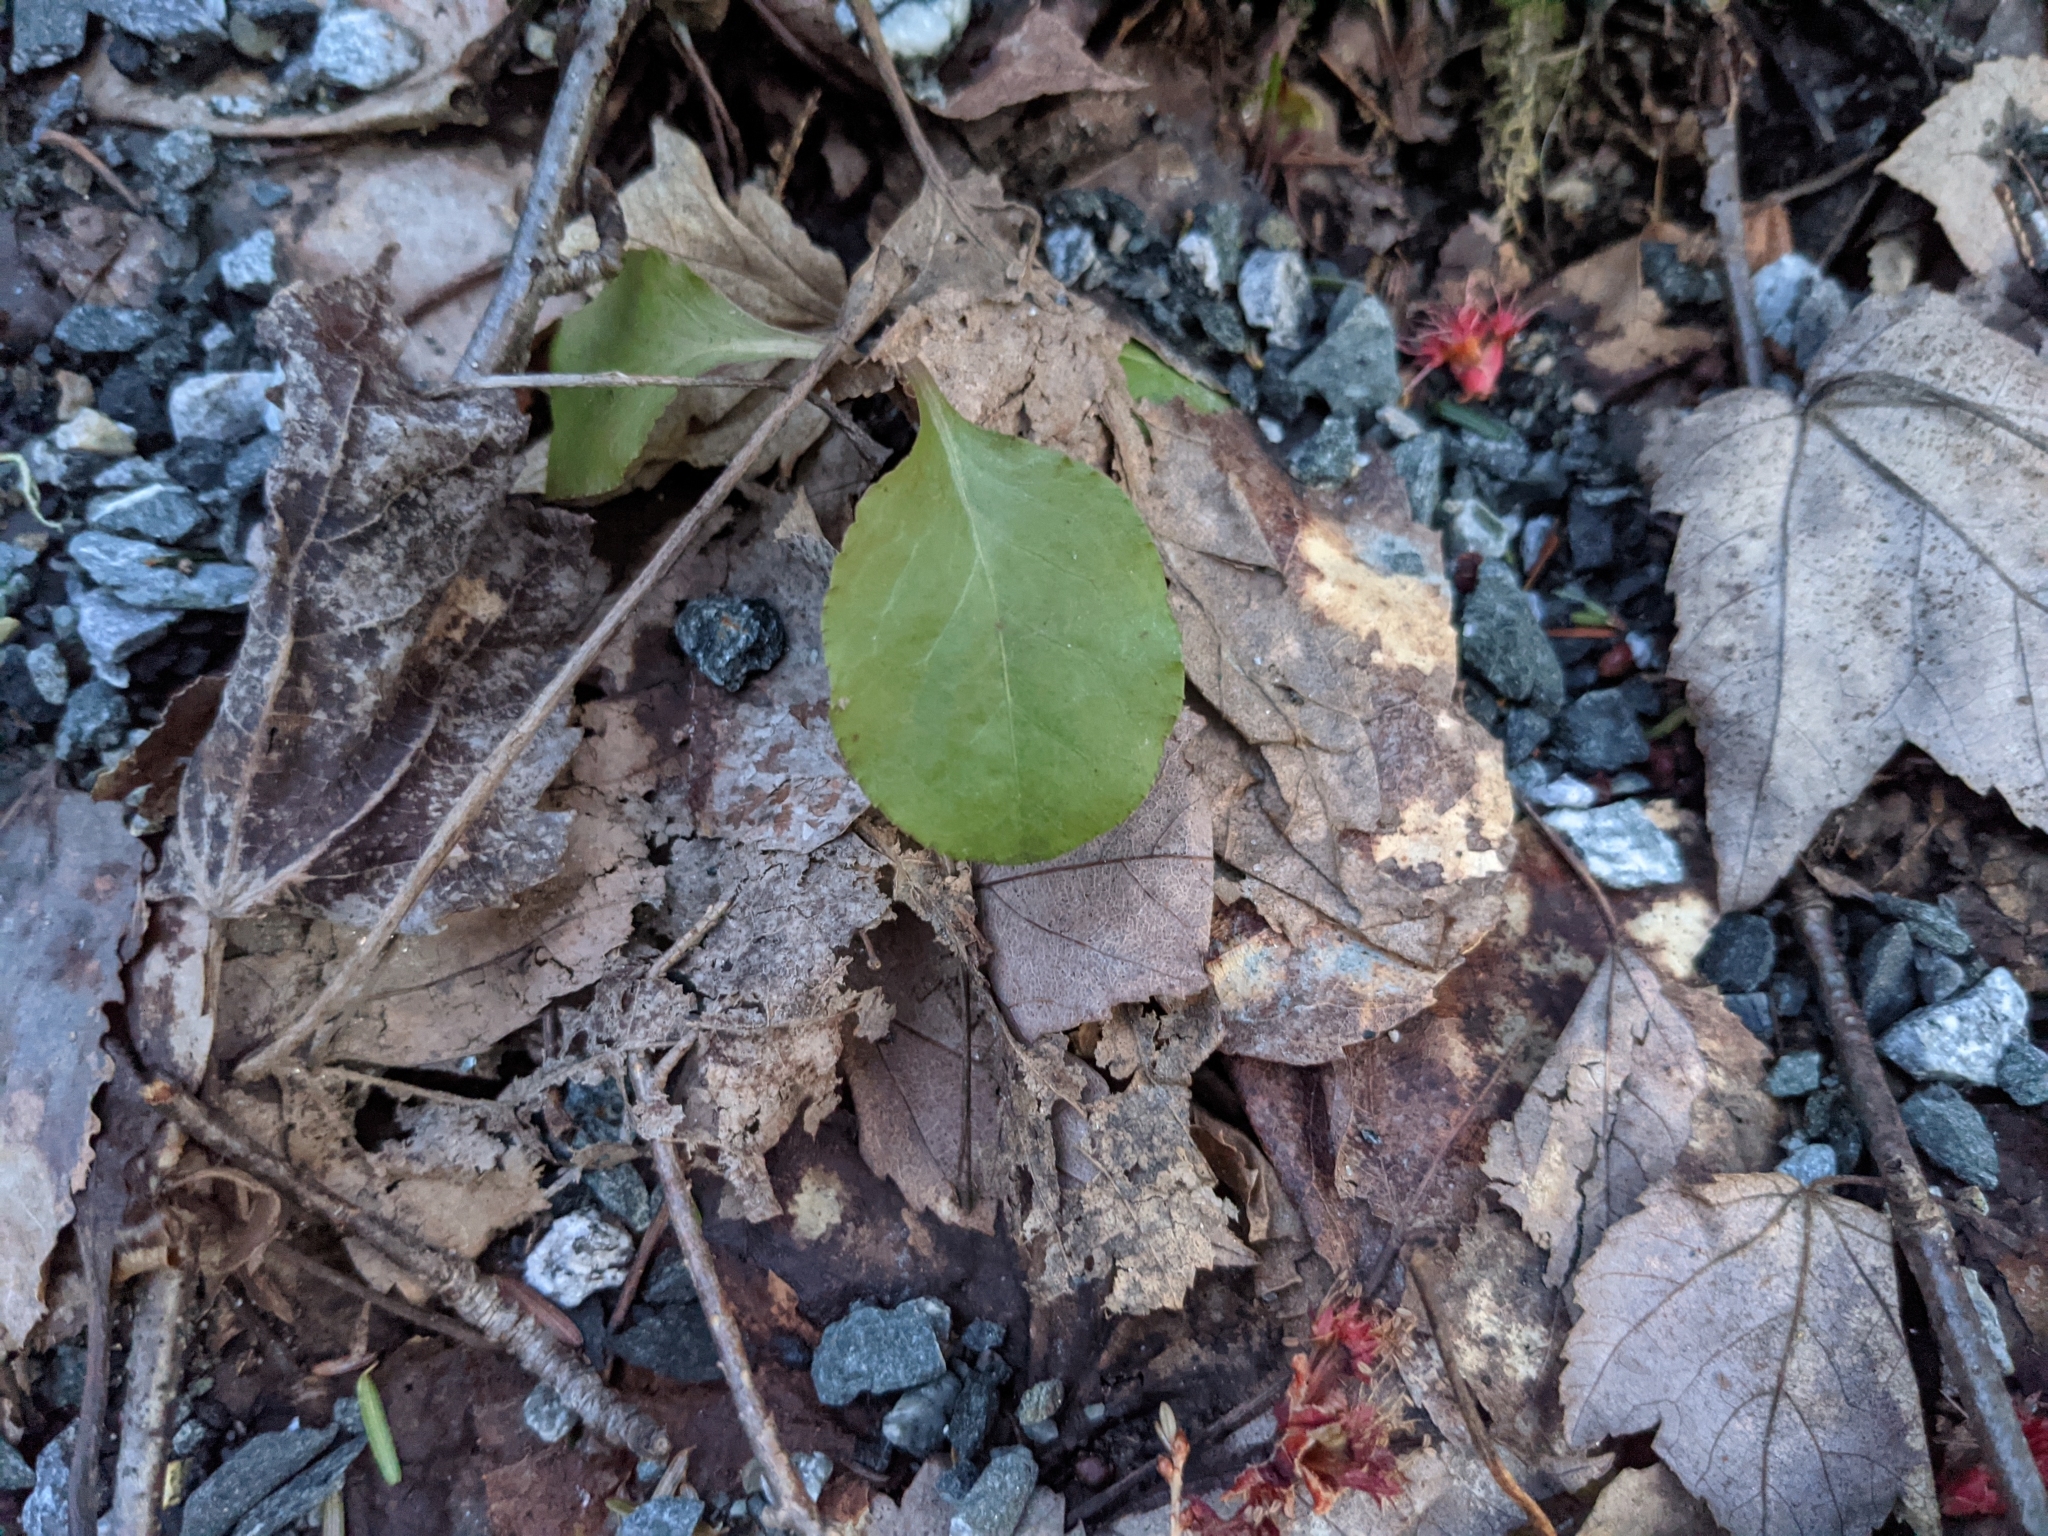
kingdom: Plantae
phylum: Tracheophyta
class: Magnoliopsida
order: Ericales
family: Ericaceae
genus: Pyrola
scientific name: Pyrola elliptica
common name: Shinleaf
